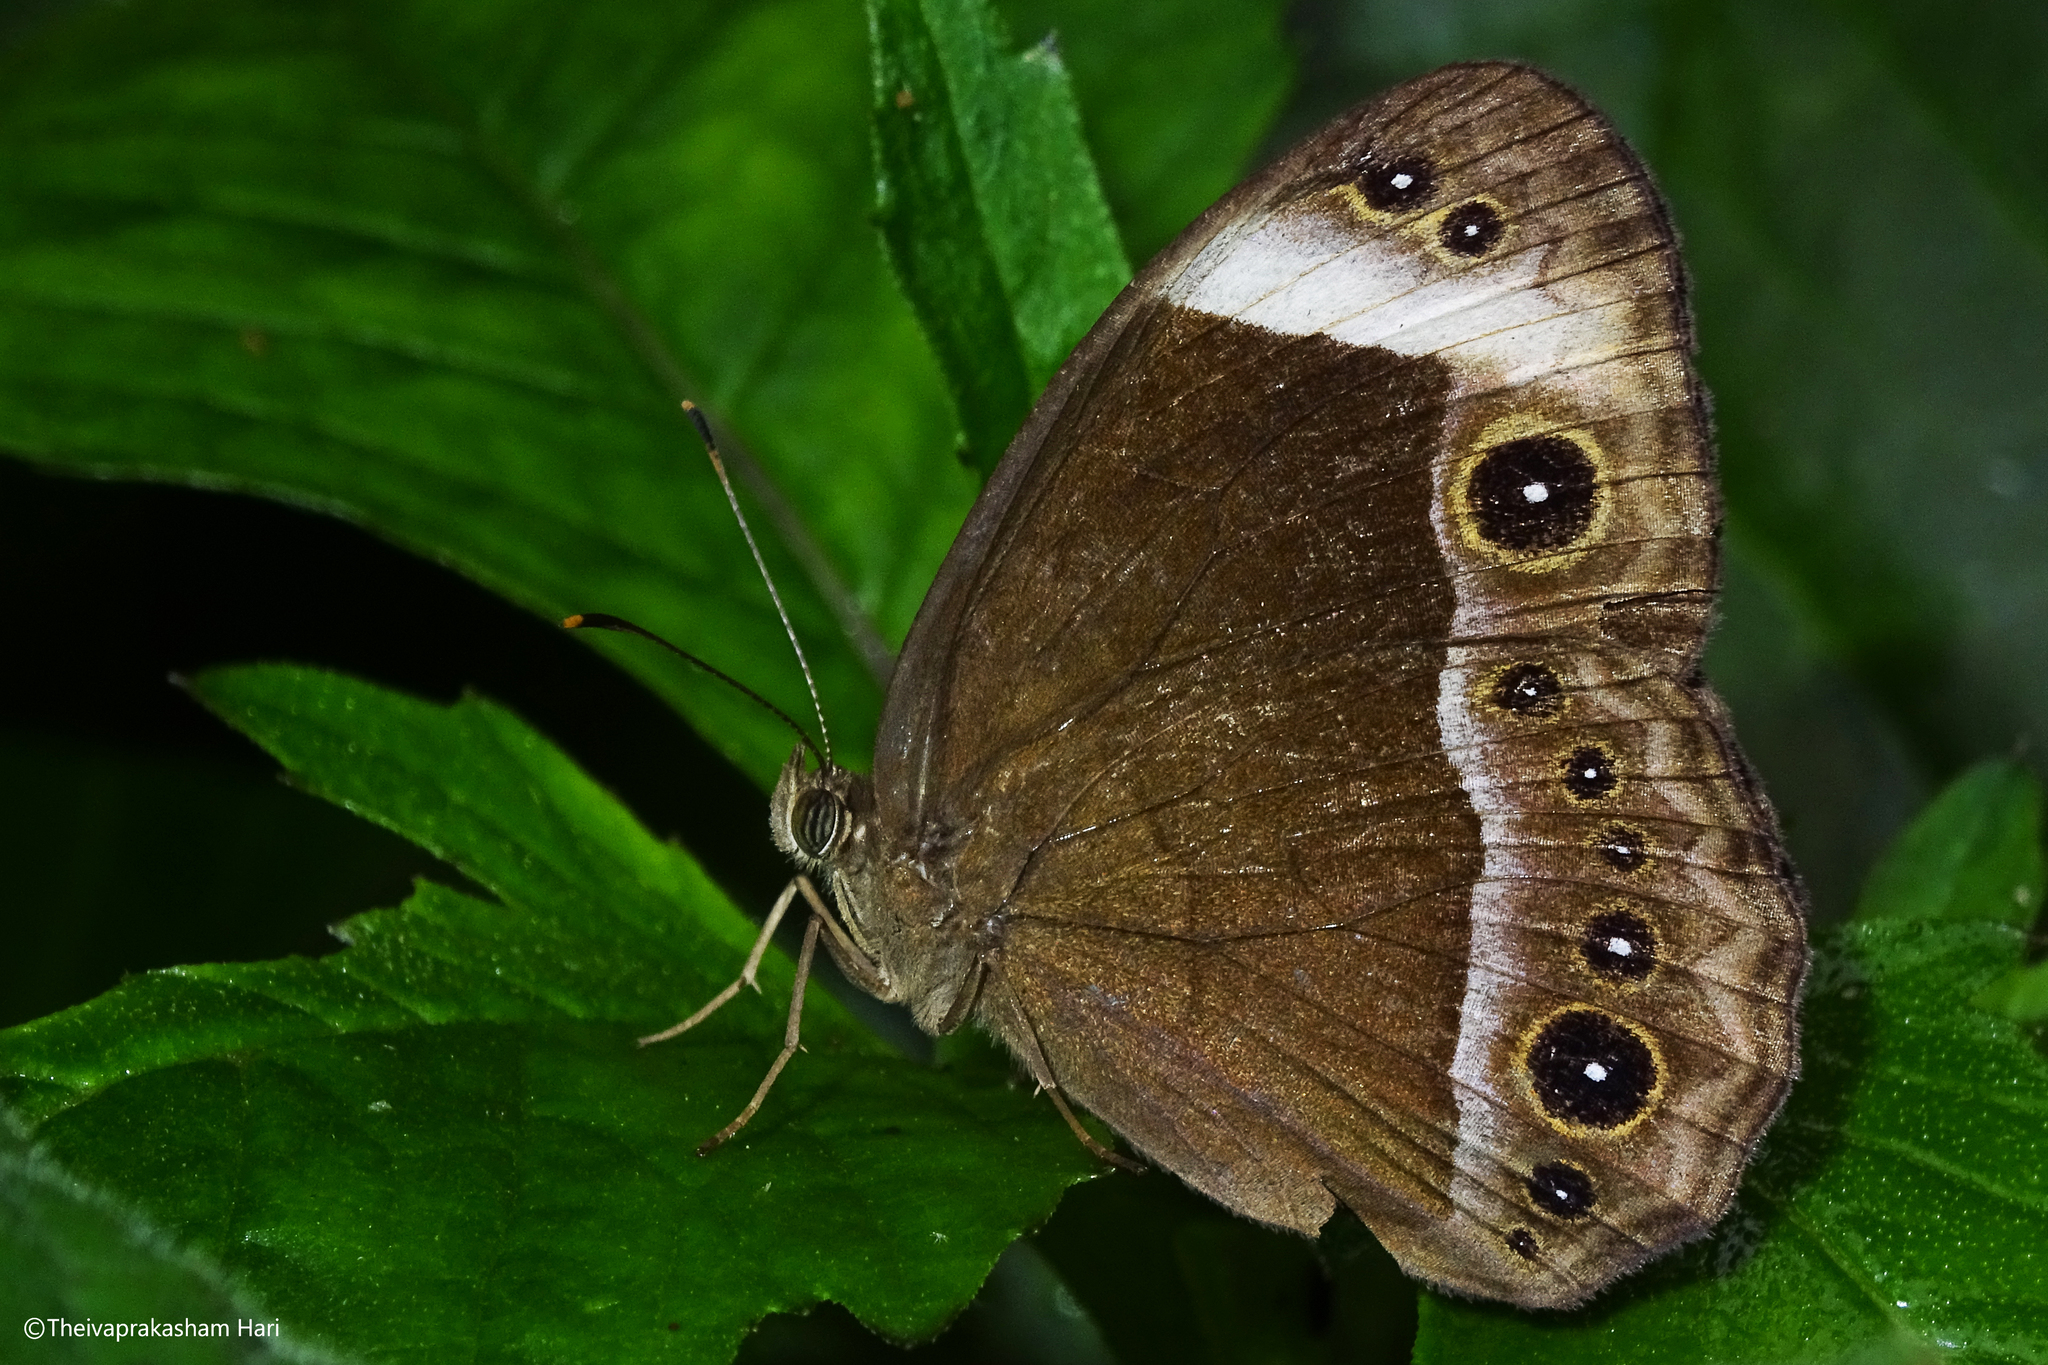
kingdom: Animalia
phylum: Arthropoda
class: Insecta
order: Lepidoptera
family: Nymphalidae
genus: Mycalesis
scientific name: Mycalesis anaxias
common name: White-bar bushbrown
